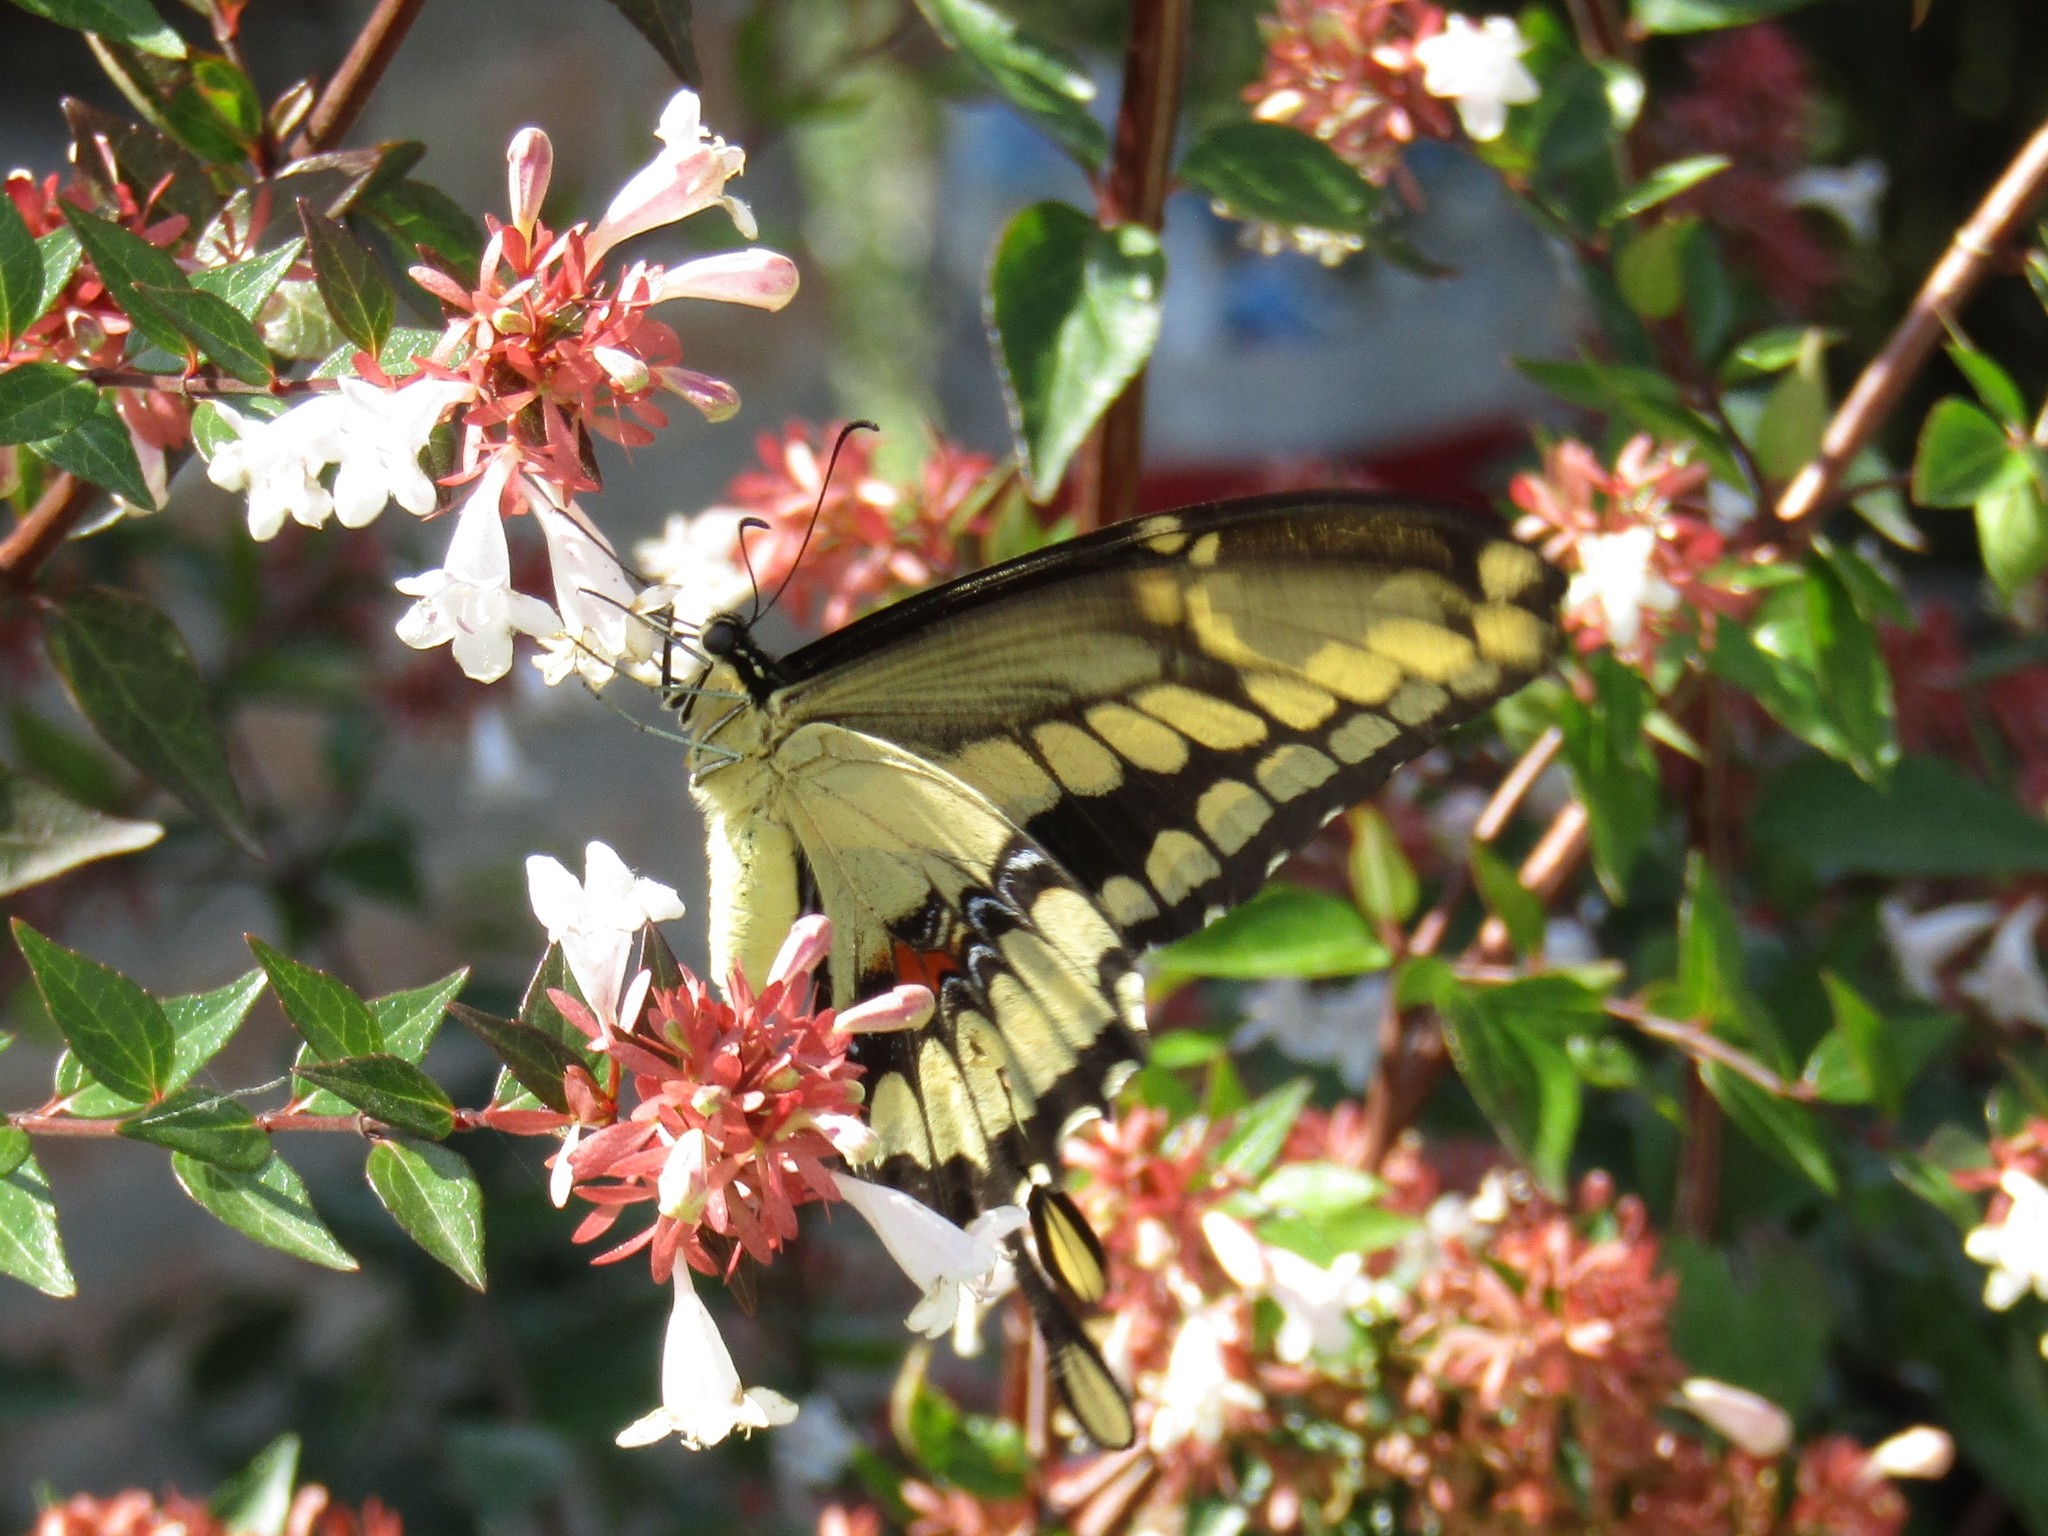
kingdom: Animalia
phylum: Arthropoda
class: Insecta
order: Lepidoptera
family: Papilionidae
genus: Papilio
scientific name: Papilio thoas
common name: King swallowtail
